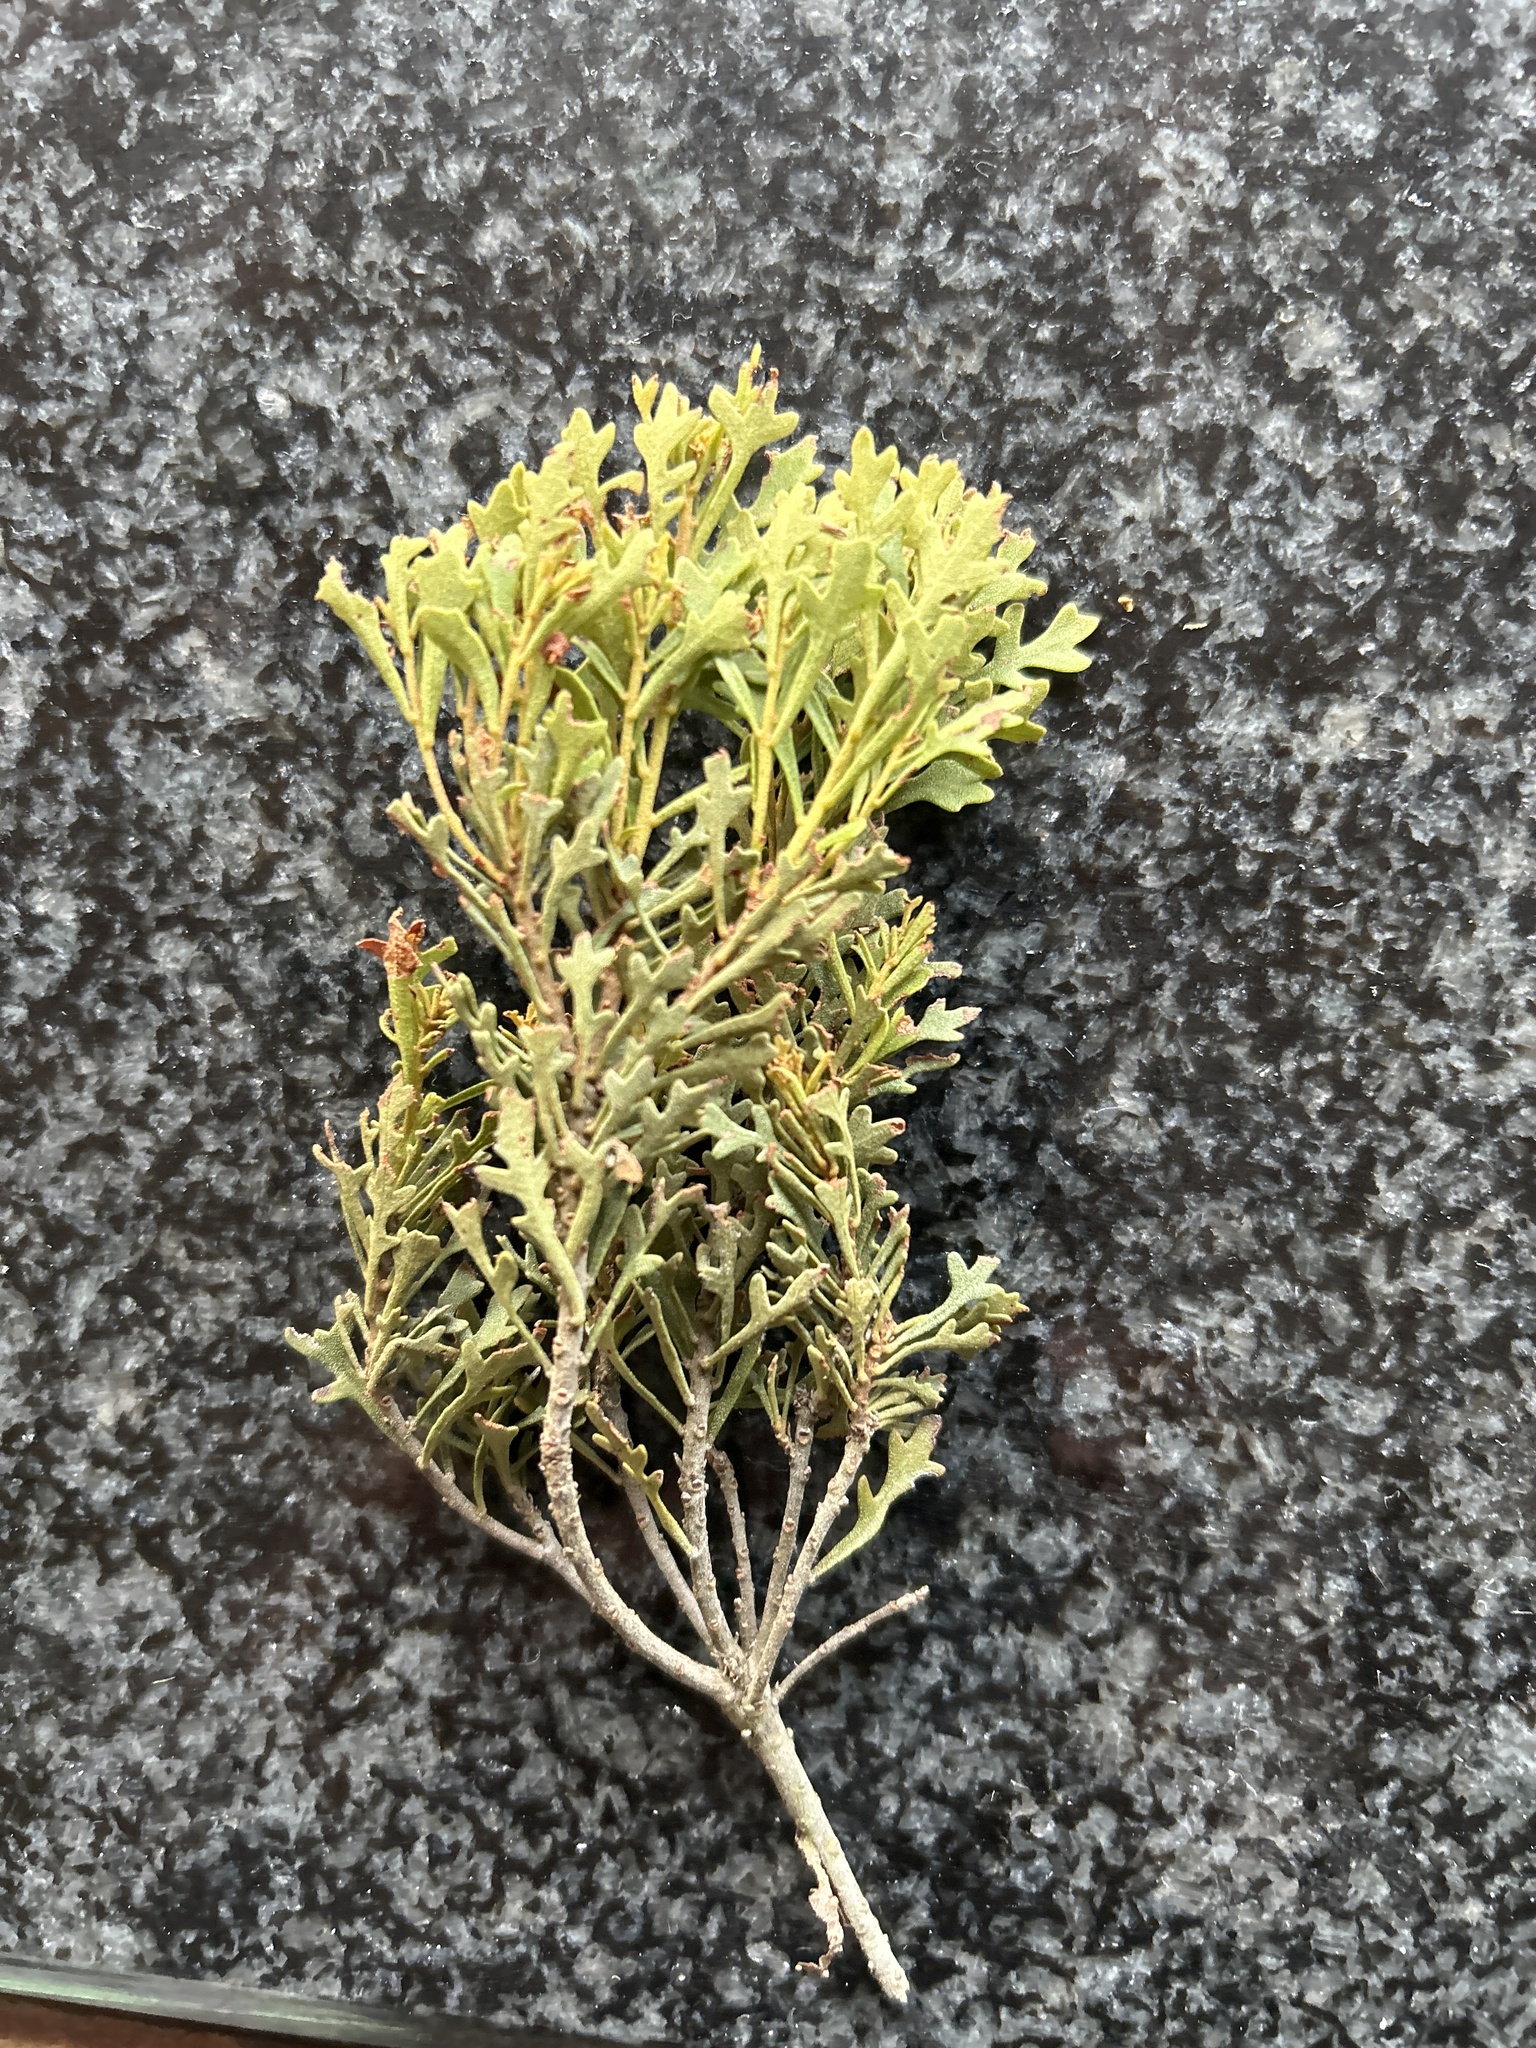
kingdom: Plantae
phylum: Tracheophyta
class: Magnoliopsida
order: Fagales
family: Myricaceae
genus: Morella
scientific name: Morella quercifolia
